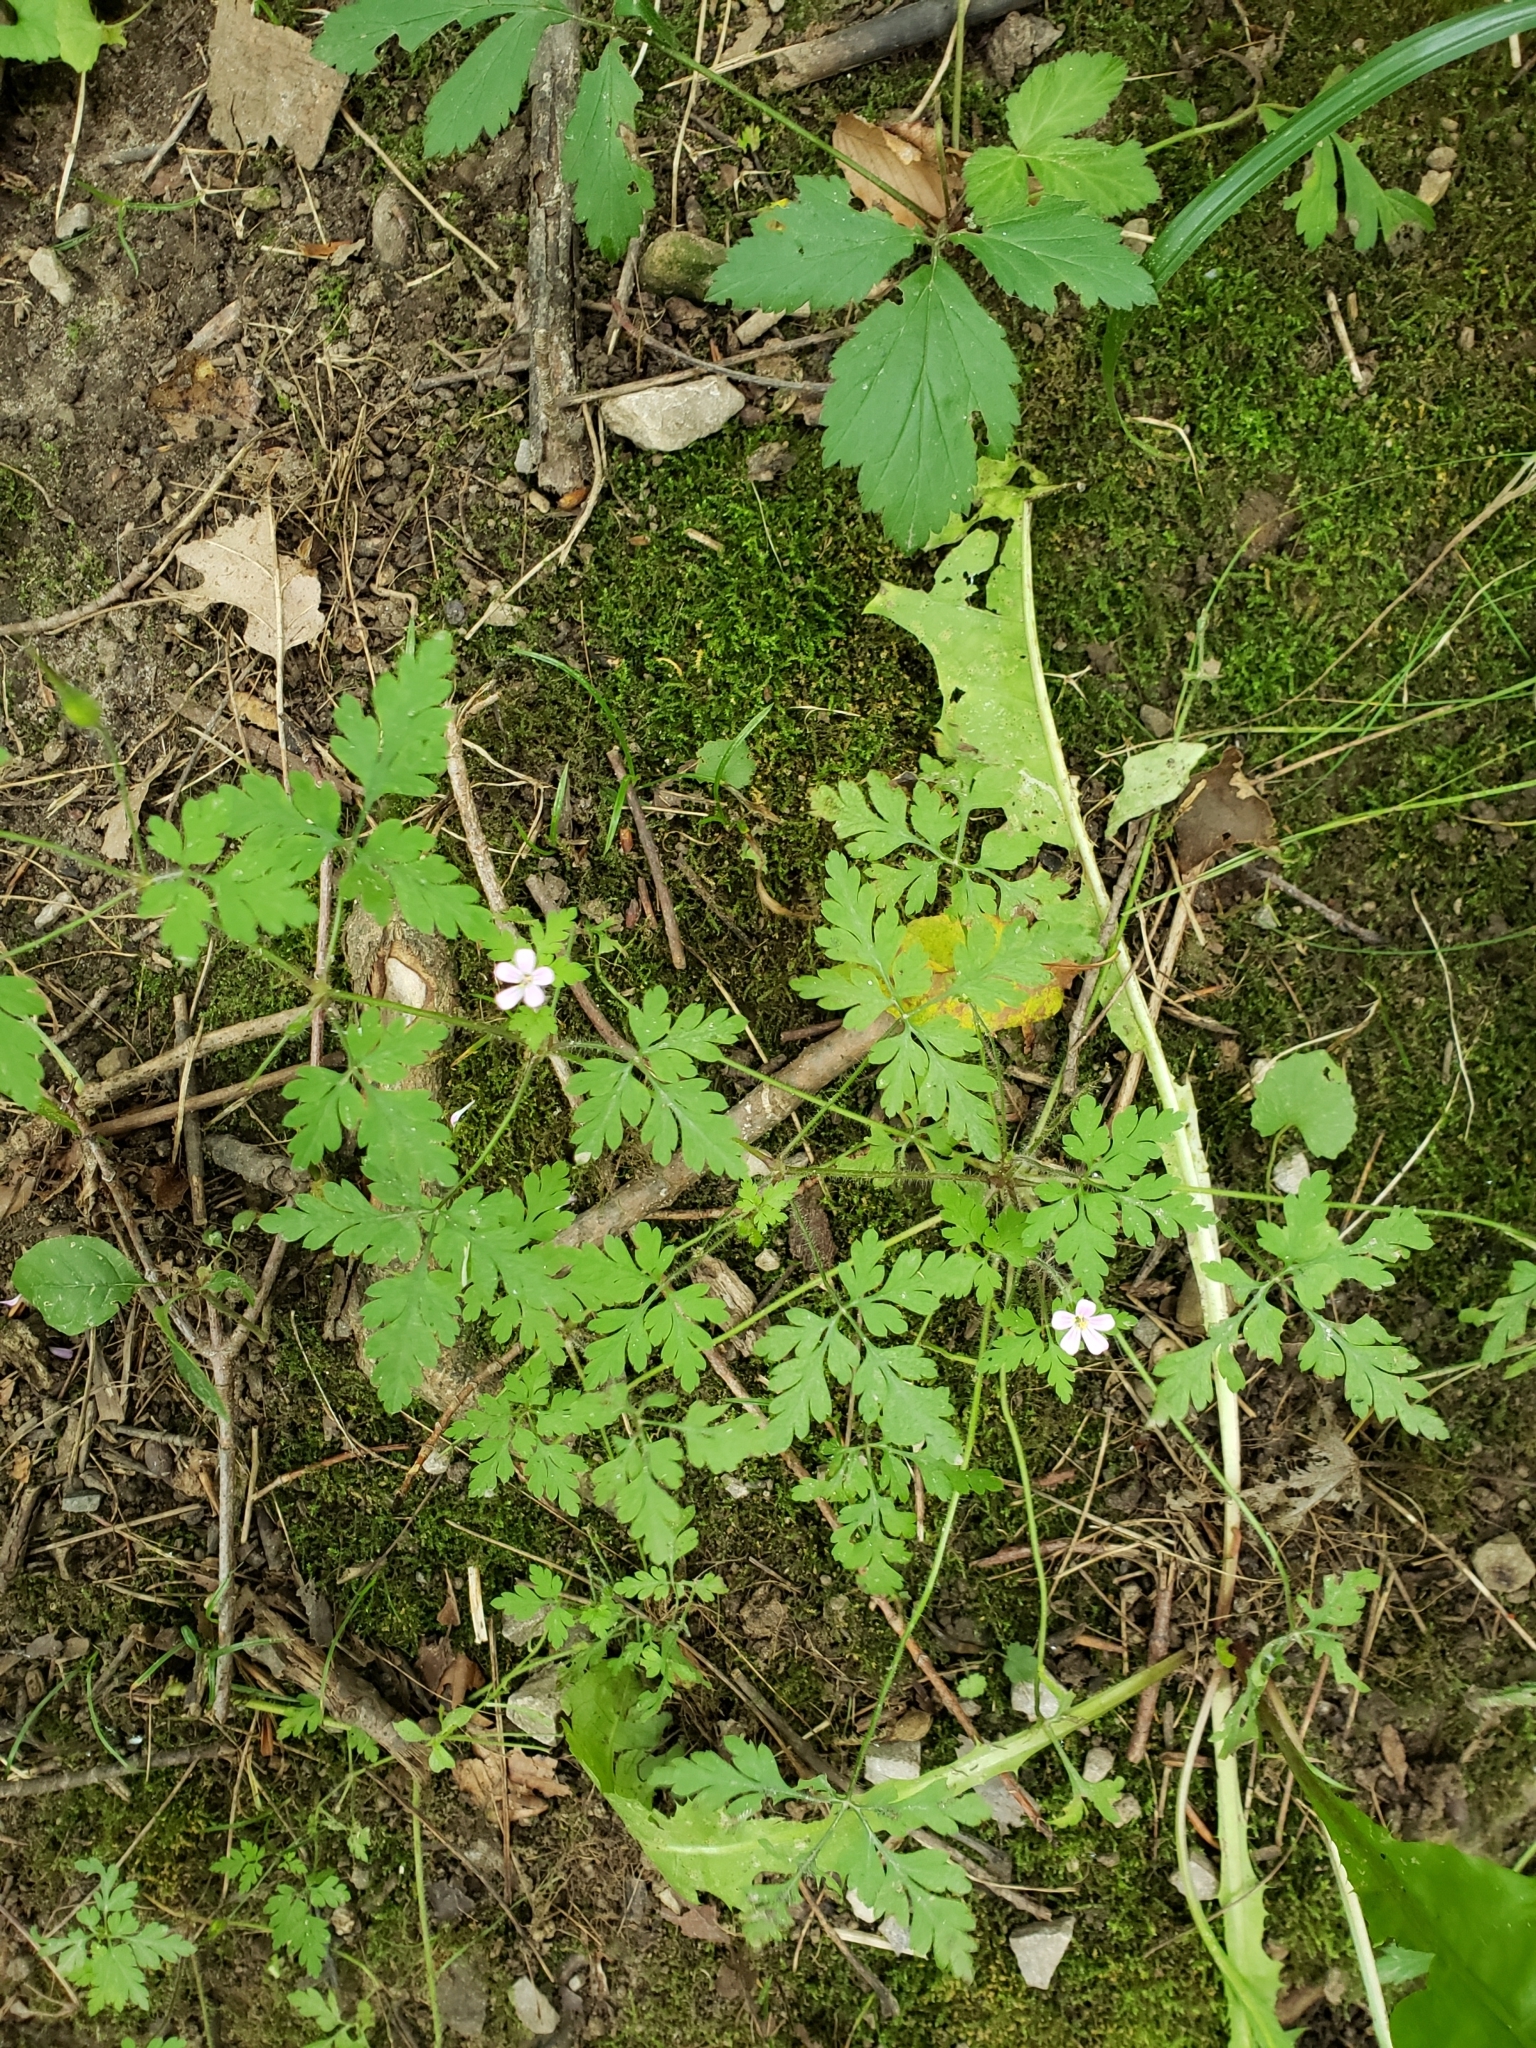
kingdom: Plantae
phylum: Tracheophyta
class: Magnoliopsida
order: Geraniales
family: Geraniaceae
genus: Geranium
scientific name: Geranium robertianum
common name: Herb-robert
